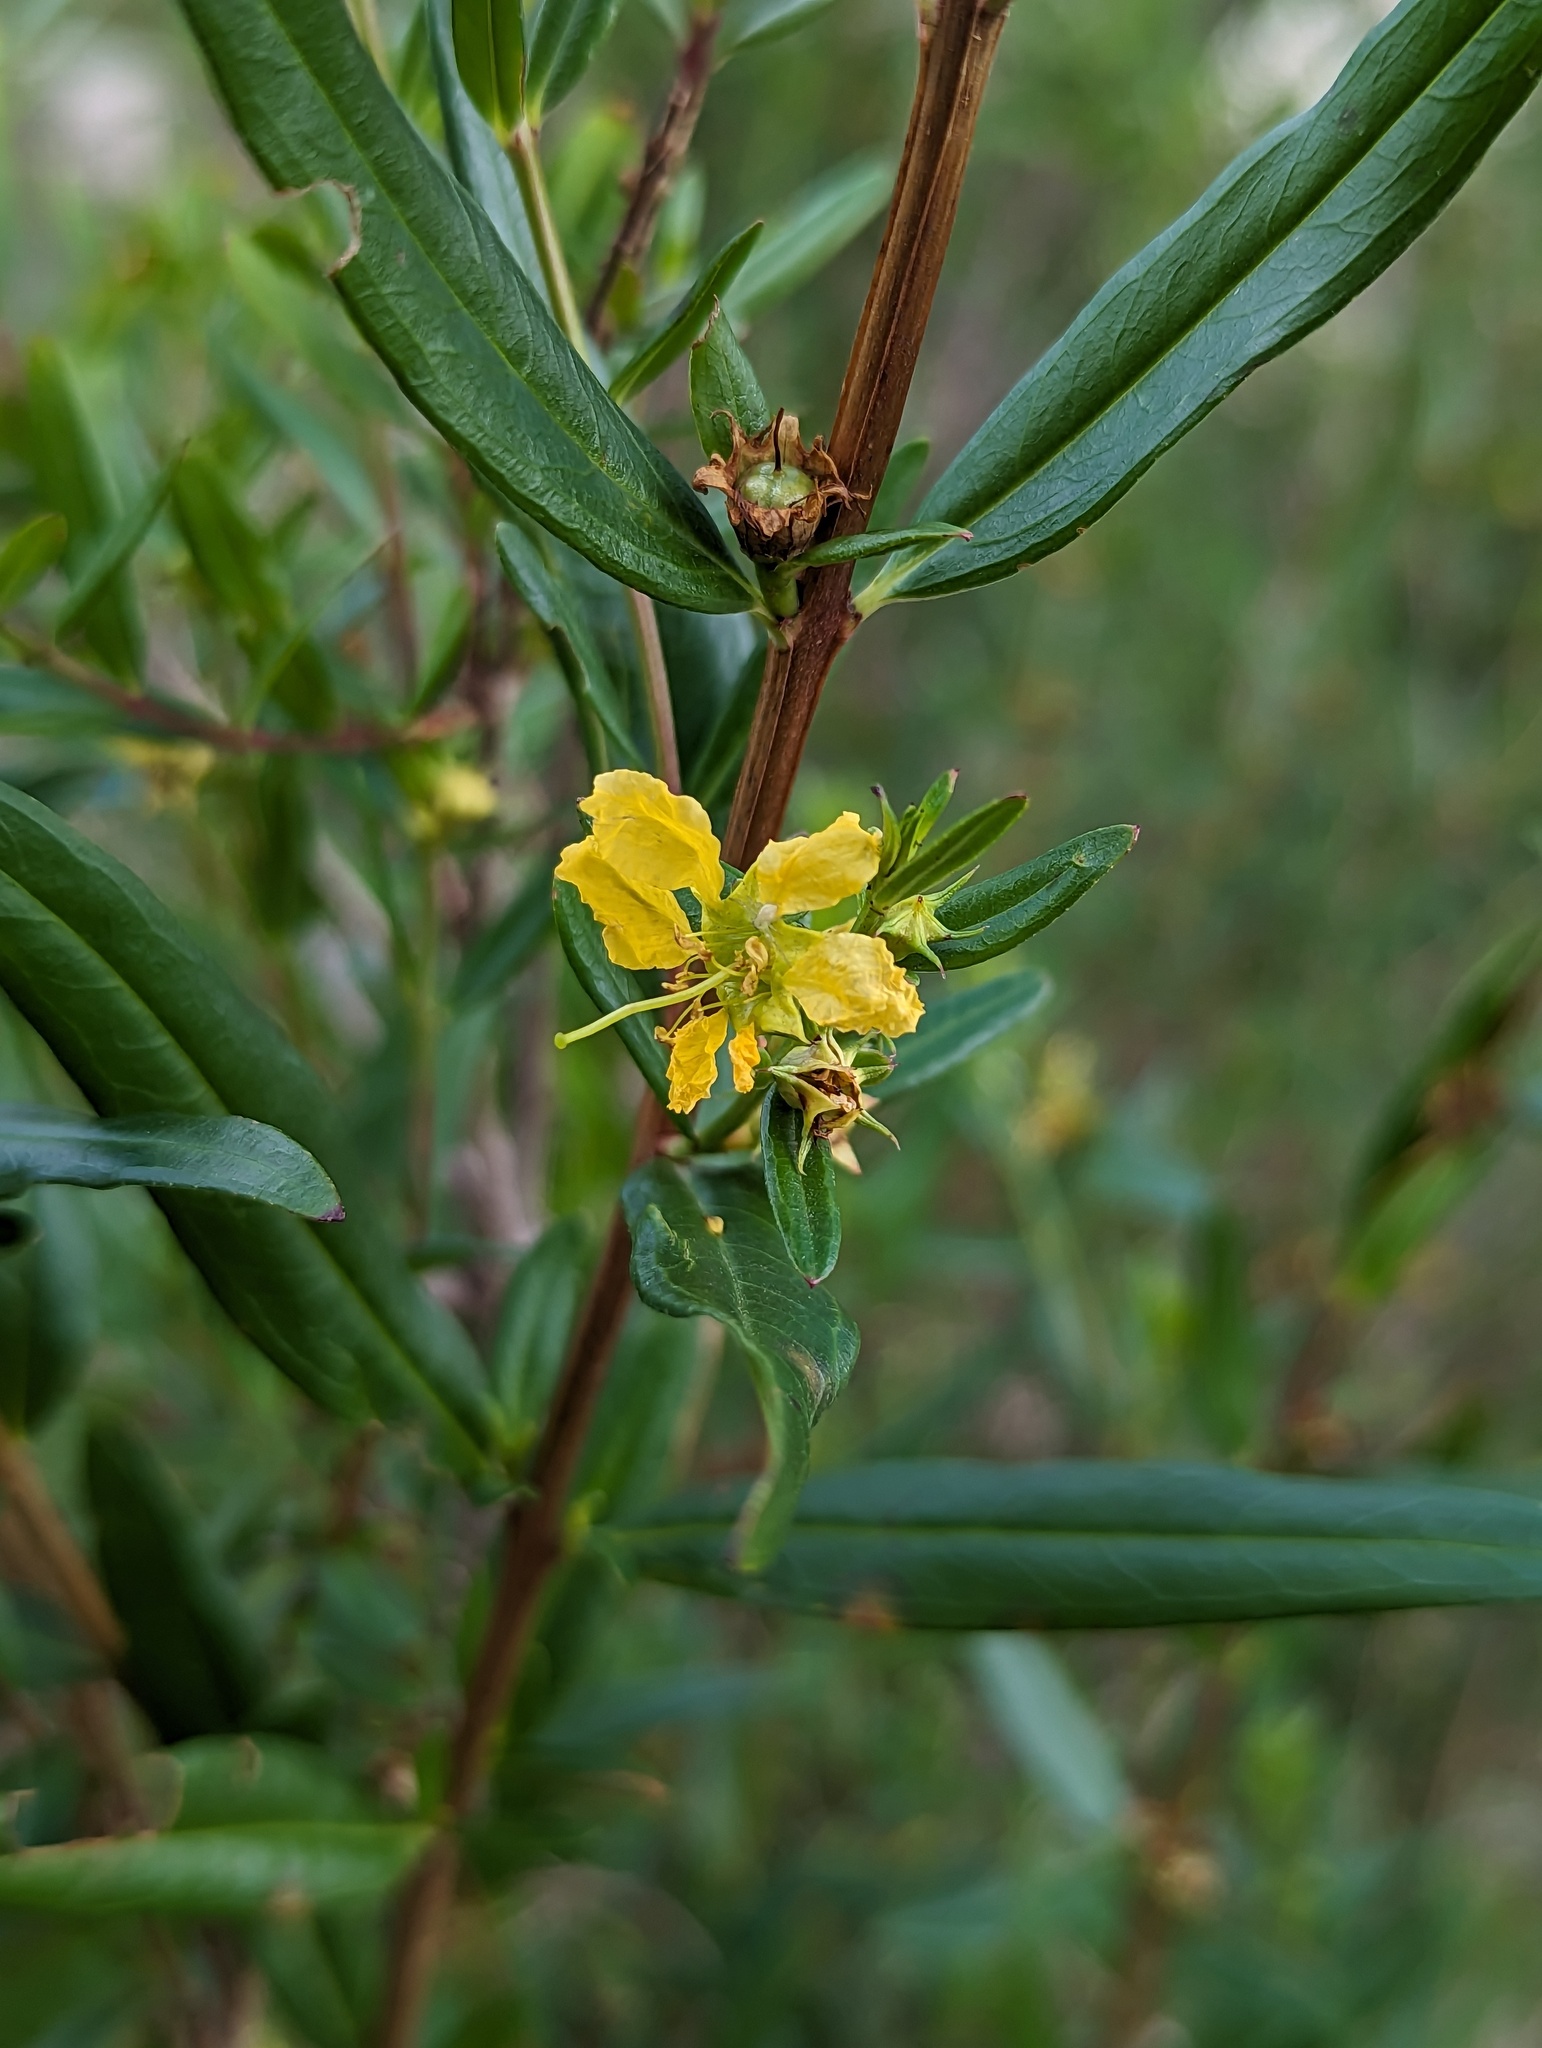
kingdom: Plantae
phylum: Tracheophyta
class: Magnoliopsida
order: Myrtales
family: Lythraceae
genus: Heimia
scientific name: Heimia salicifolia
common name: Willow-leaf heimia
